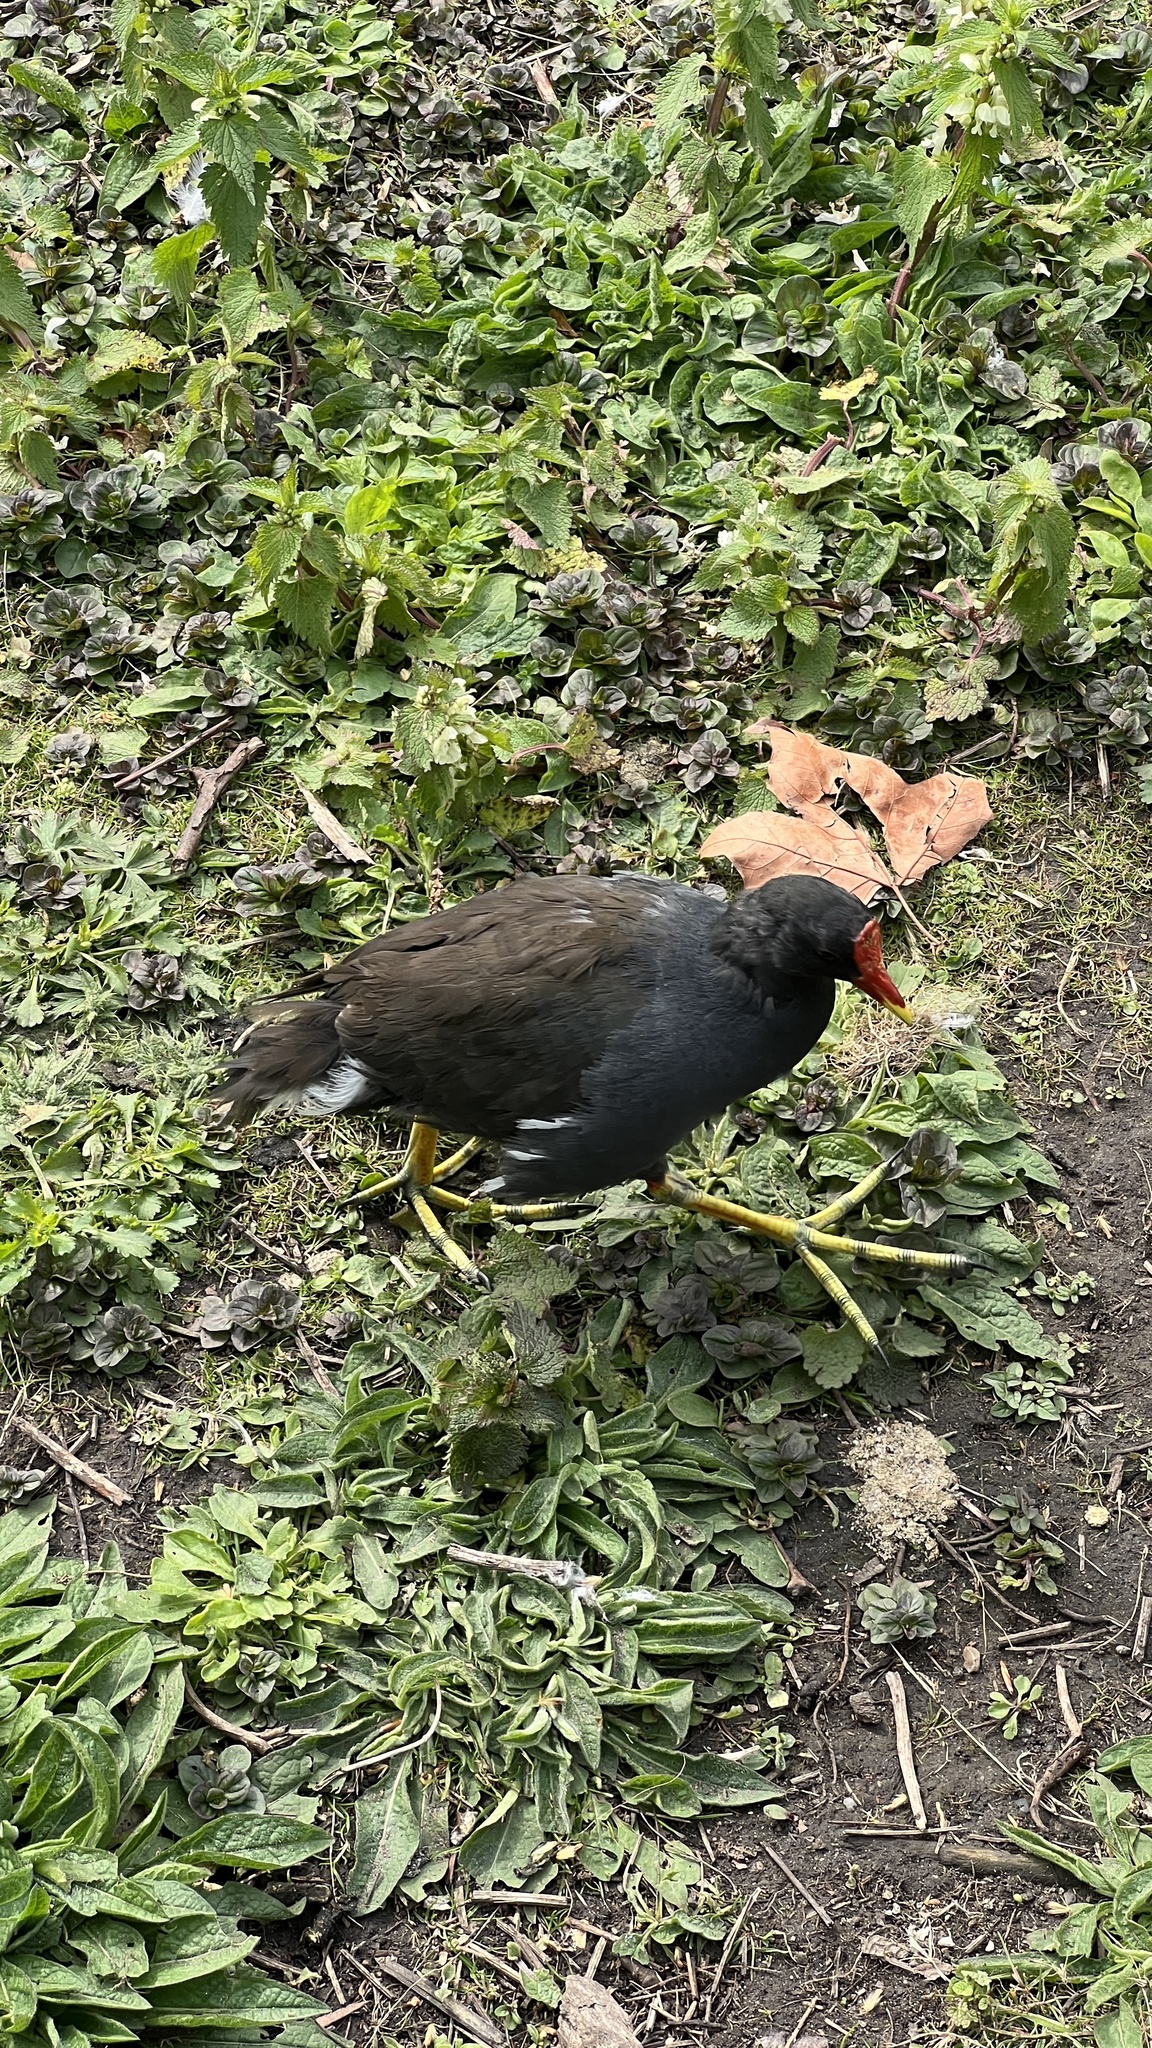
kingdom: Animalia
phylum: Chordata
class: Aves
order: Gruiformes
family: Rallidae
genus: Gallinula
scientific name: Gallinula chloropus
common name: Common moorhen
